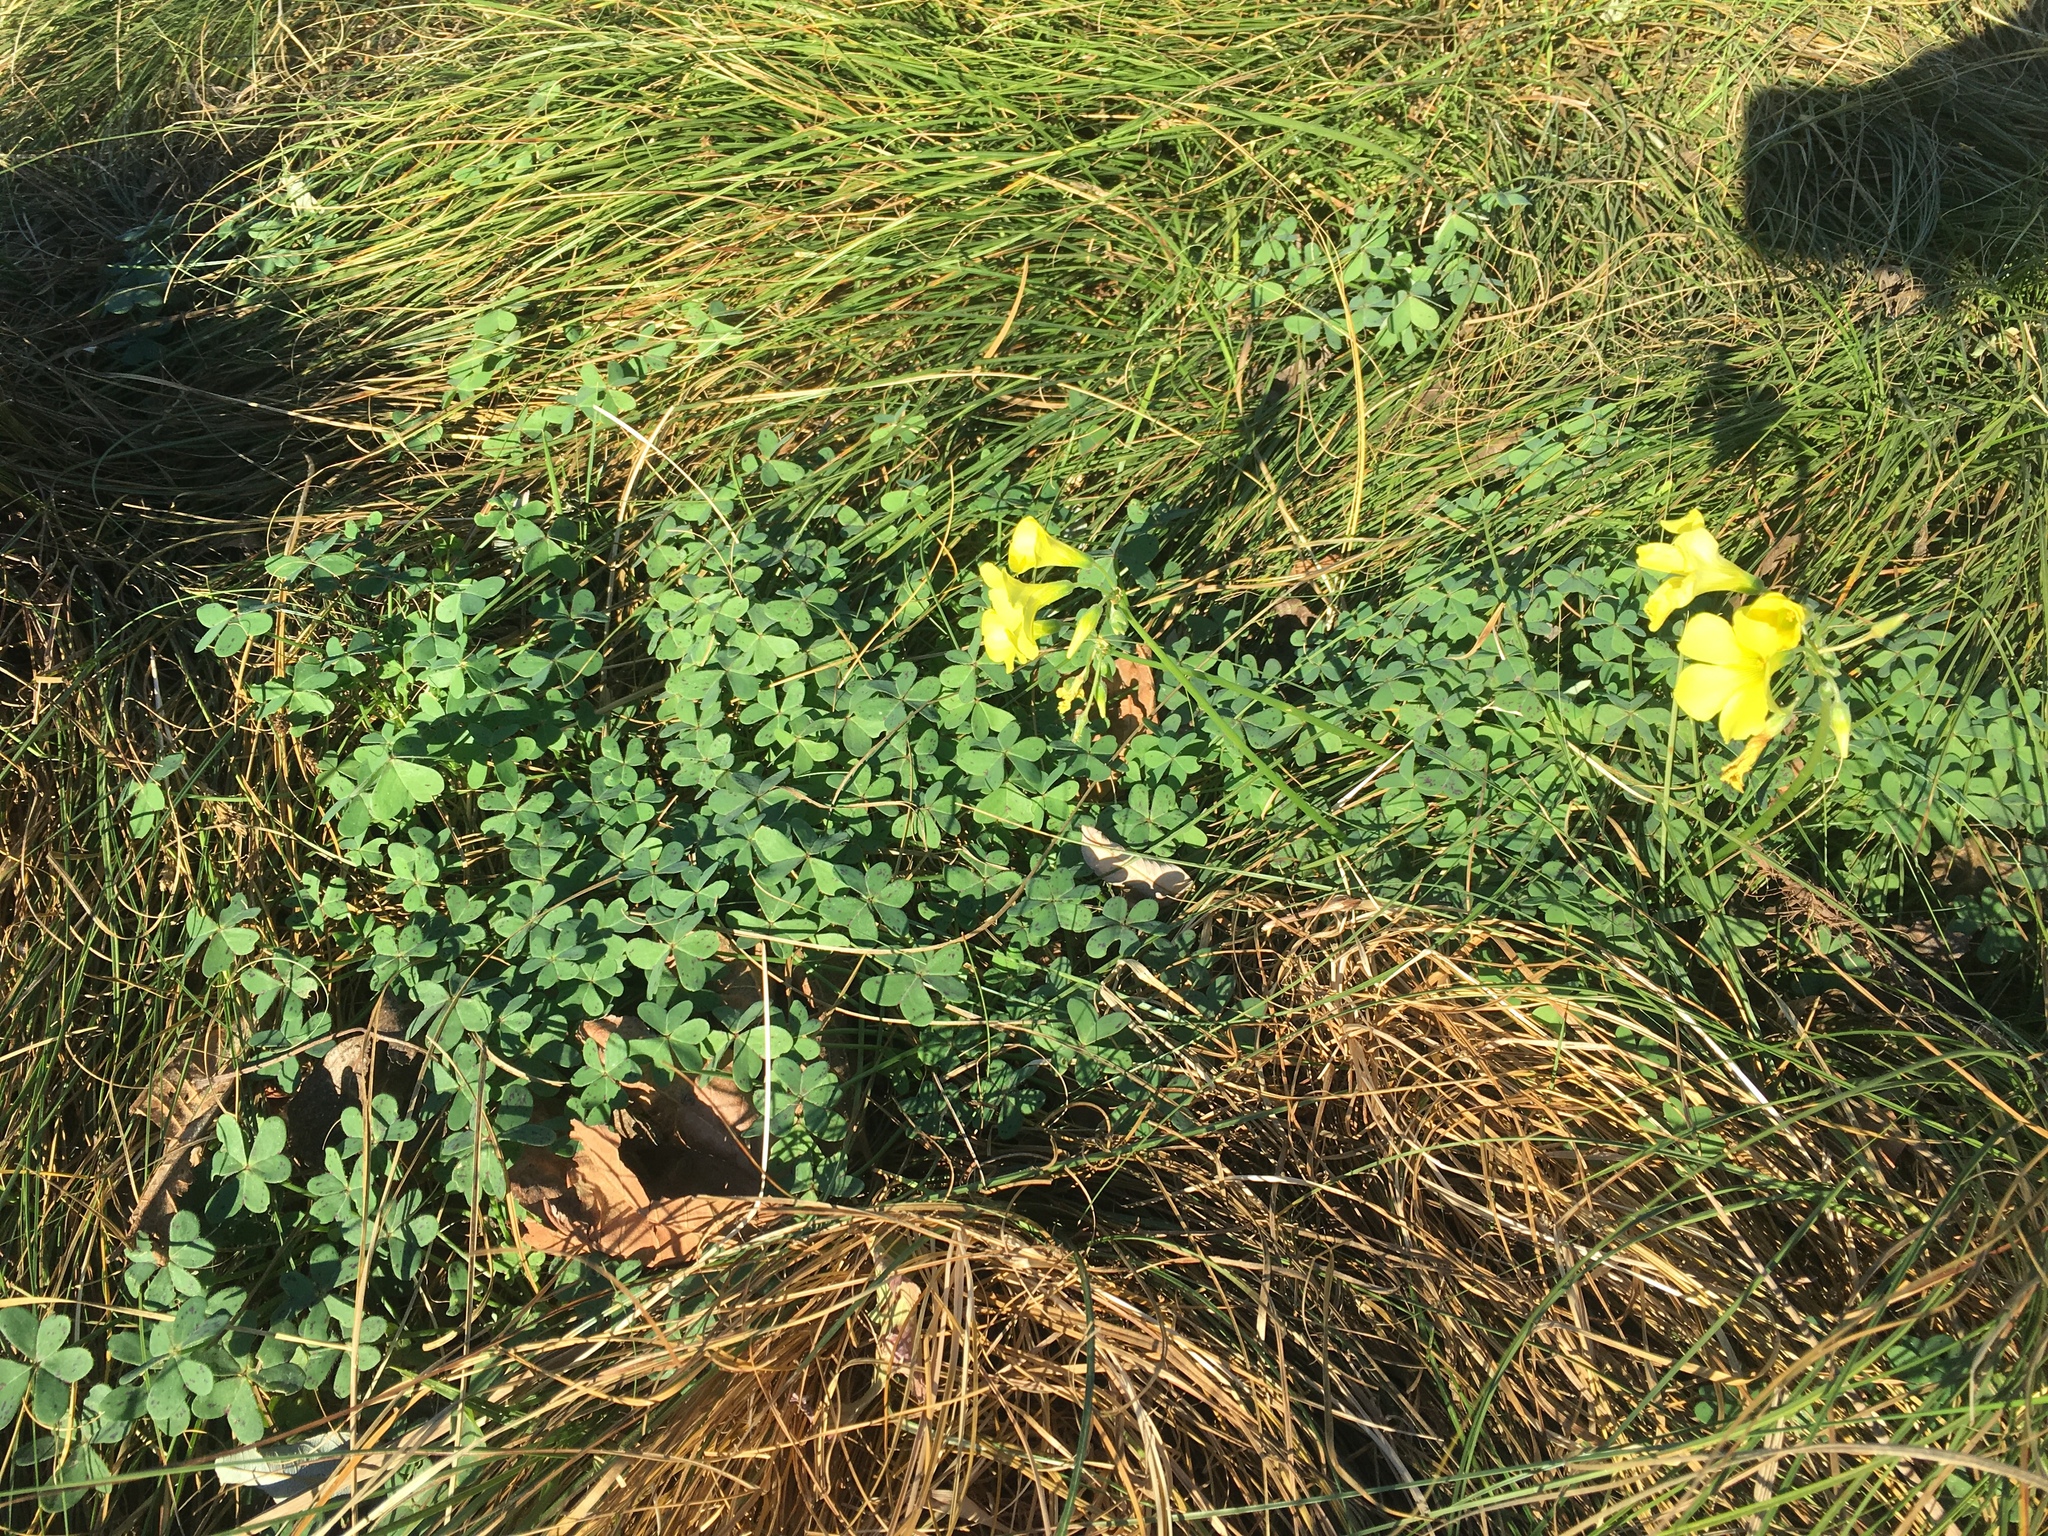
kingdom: Plantae
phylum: Tracheophyta
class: Magnoliopsida
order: Oxalidales
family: Oxalidaceae
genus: Oxalis
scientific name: Oxalis pes-caprae
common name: Bermuda-buttercup
